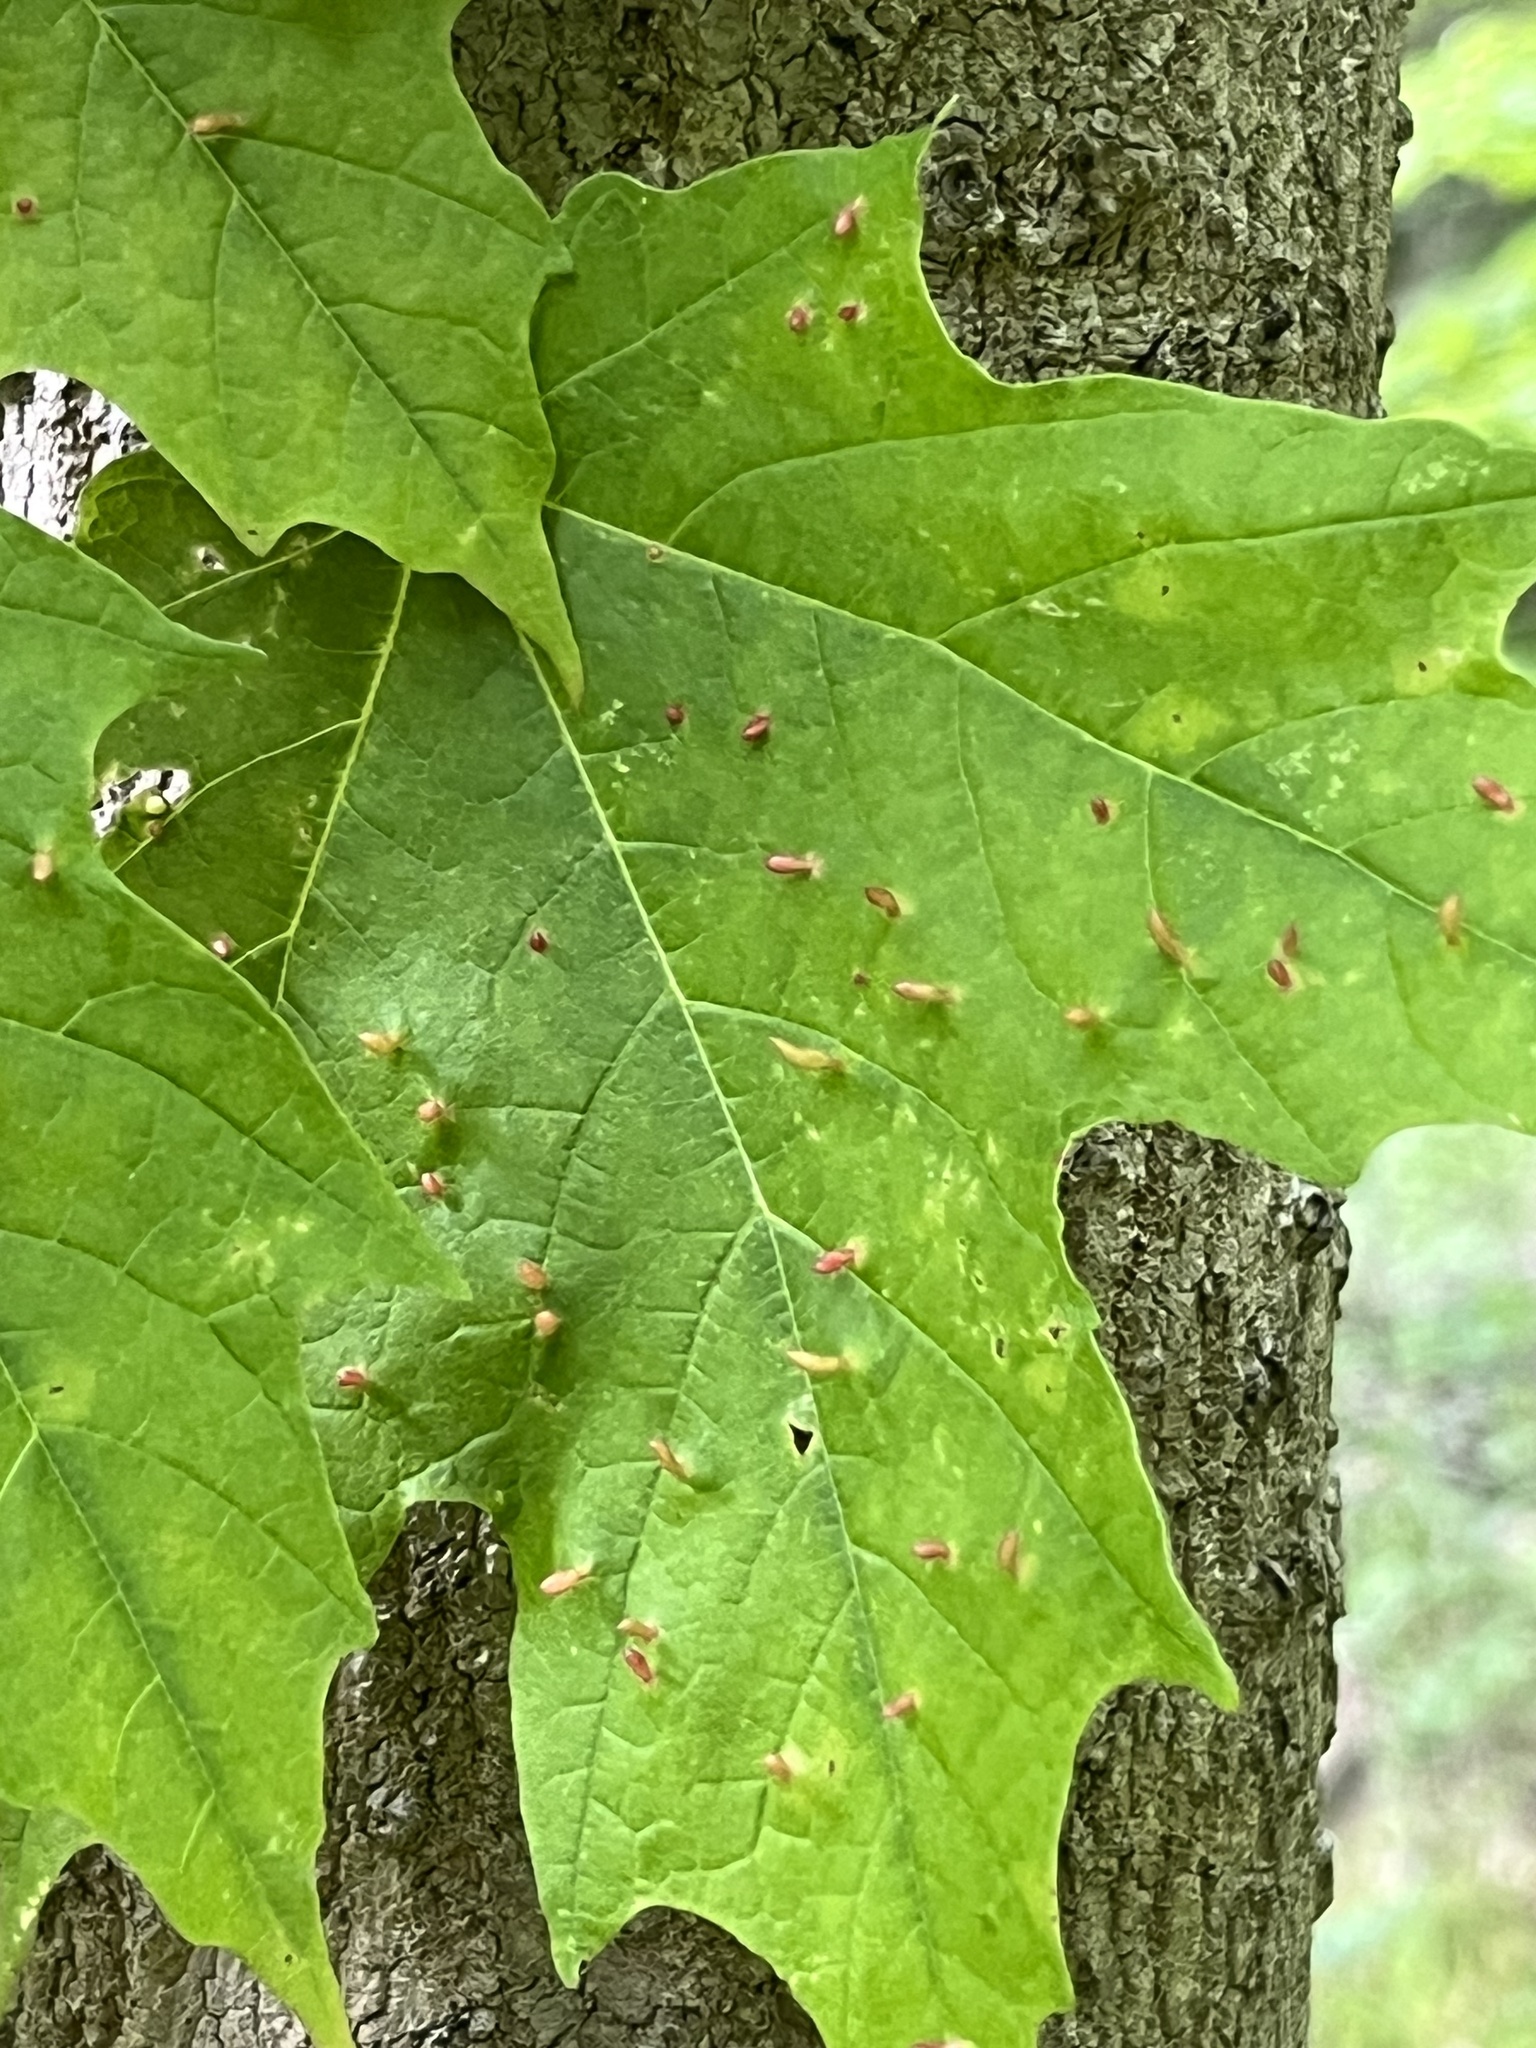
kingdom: Animalia
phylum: Arthropoda
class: Arachnida
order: Trombidiformes
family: Eriophyidae
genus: Vasates
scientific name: Vasates aceriscrumena
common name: Maple spindle gall mite
